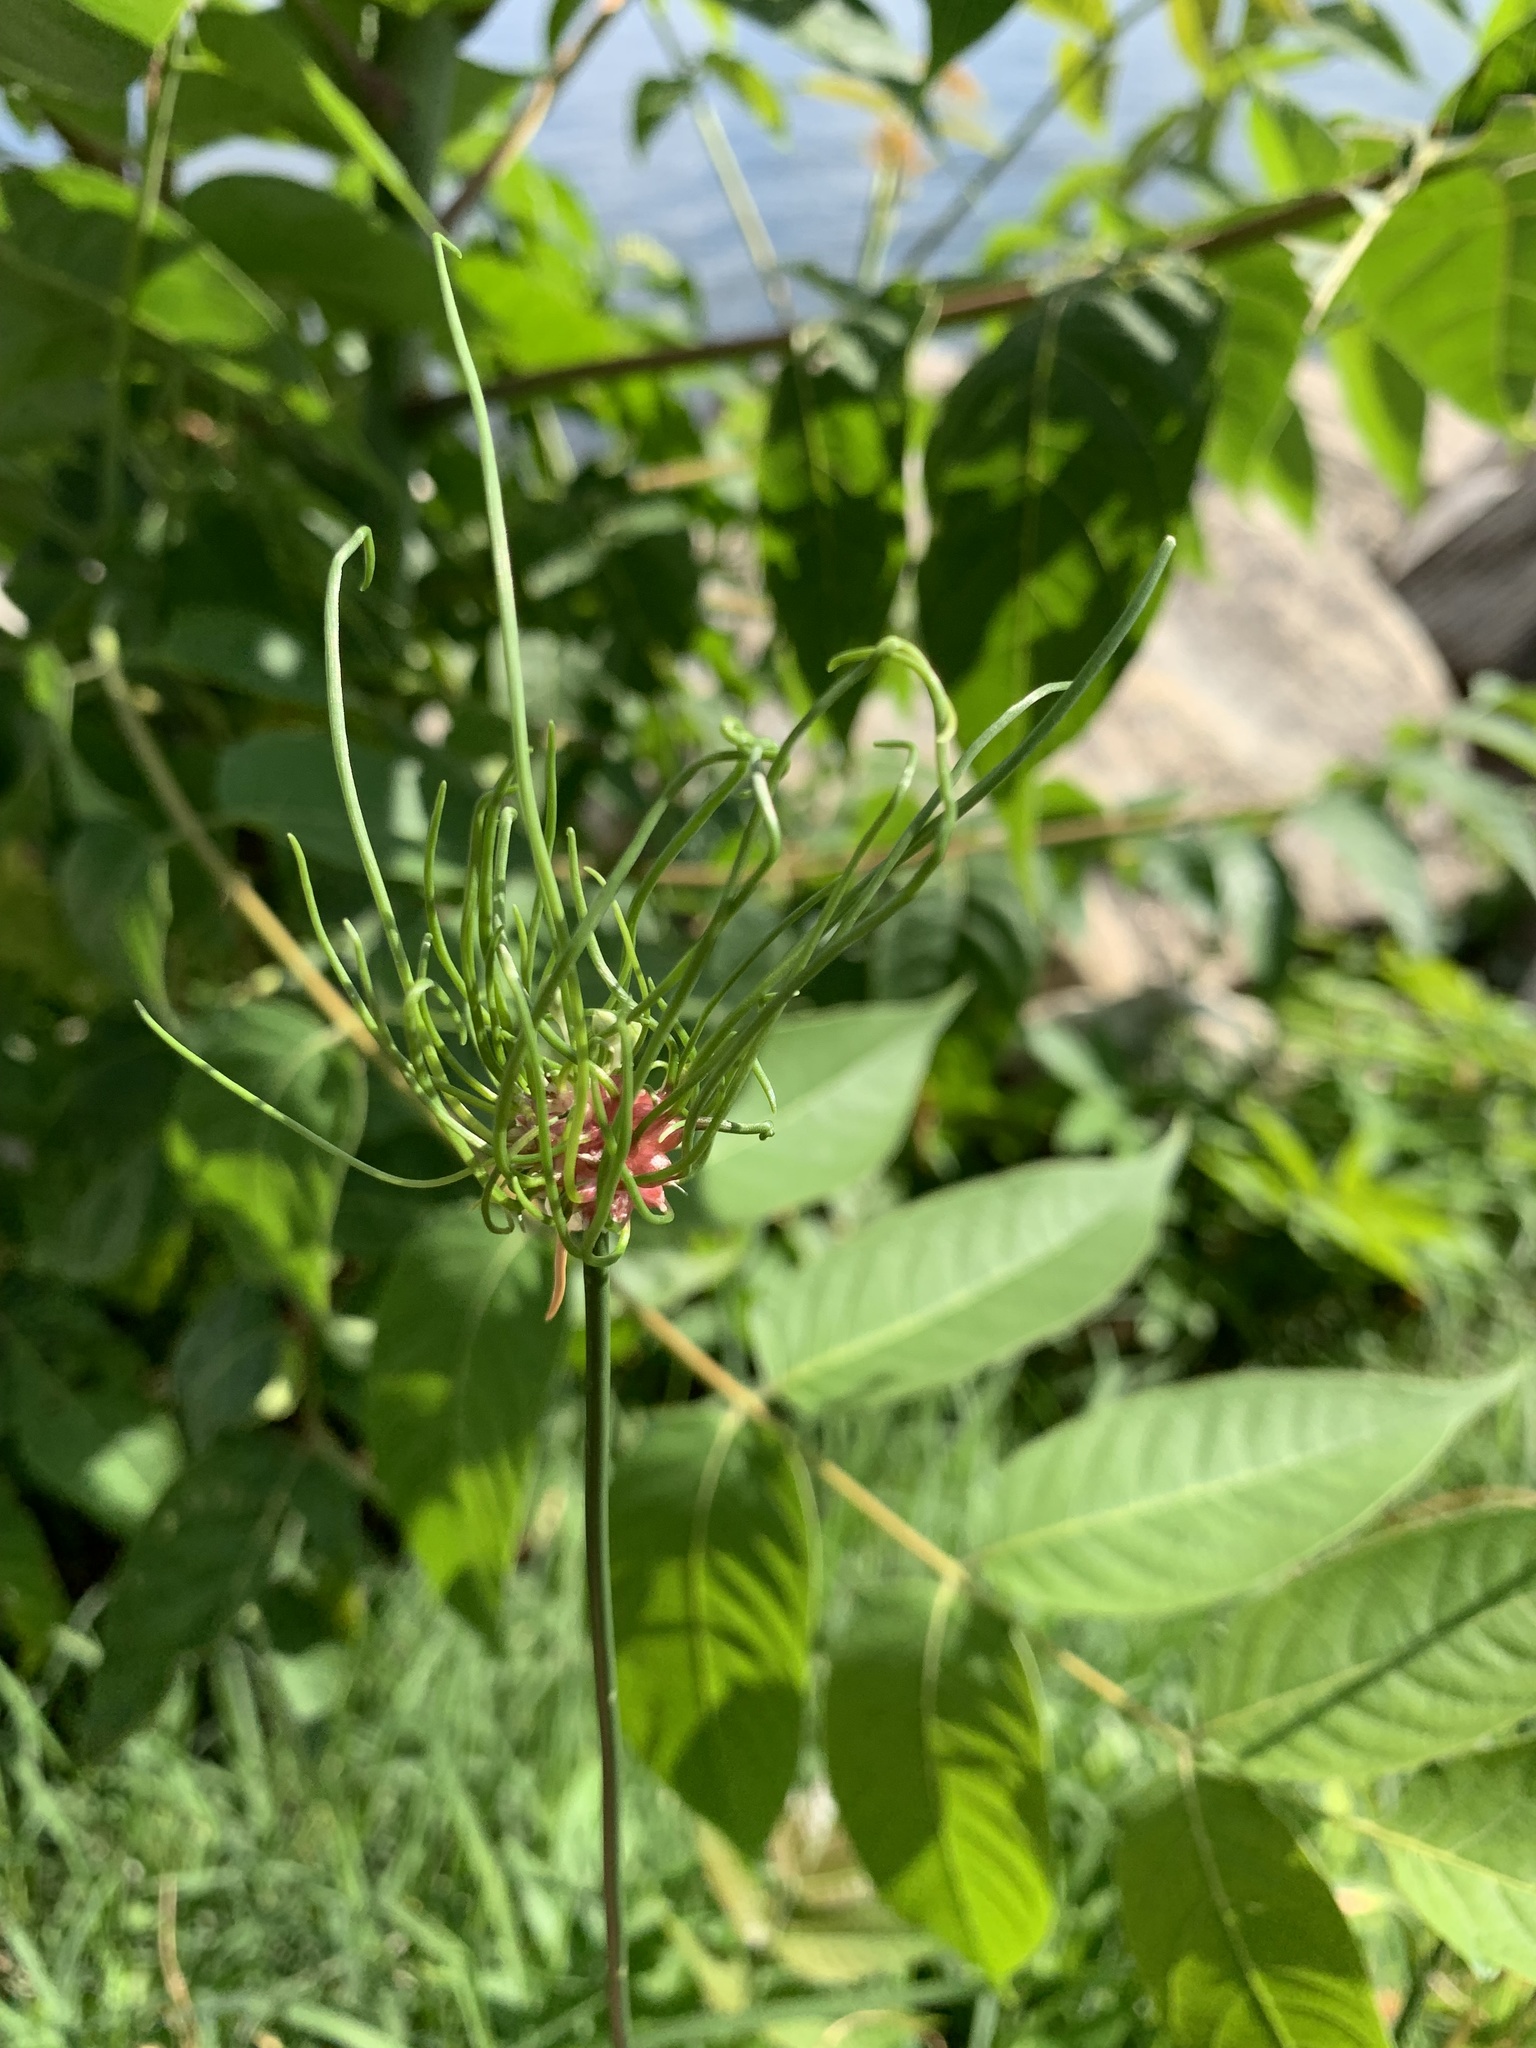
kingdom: Plantae
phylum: Tracheophyta
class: Liliopsida
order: Asparagales
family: Amaryllidaceae
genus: Allium
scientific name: Allium vineale
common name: Crow garlic
